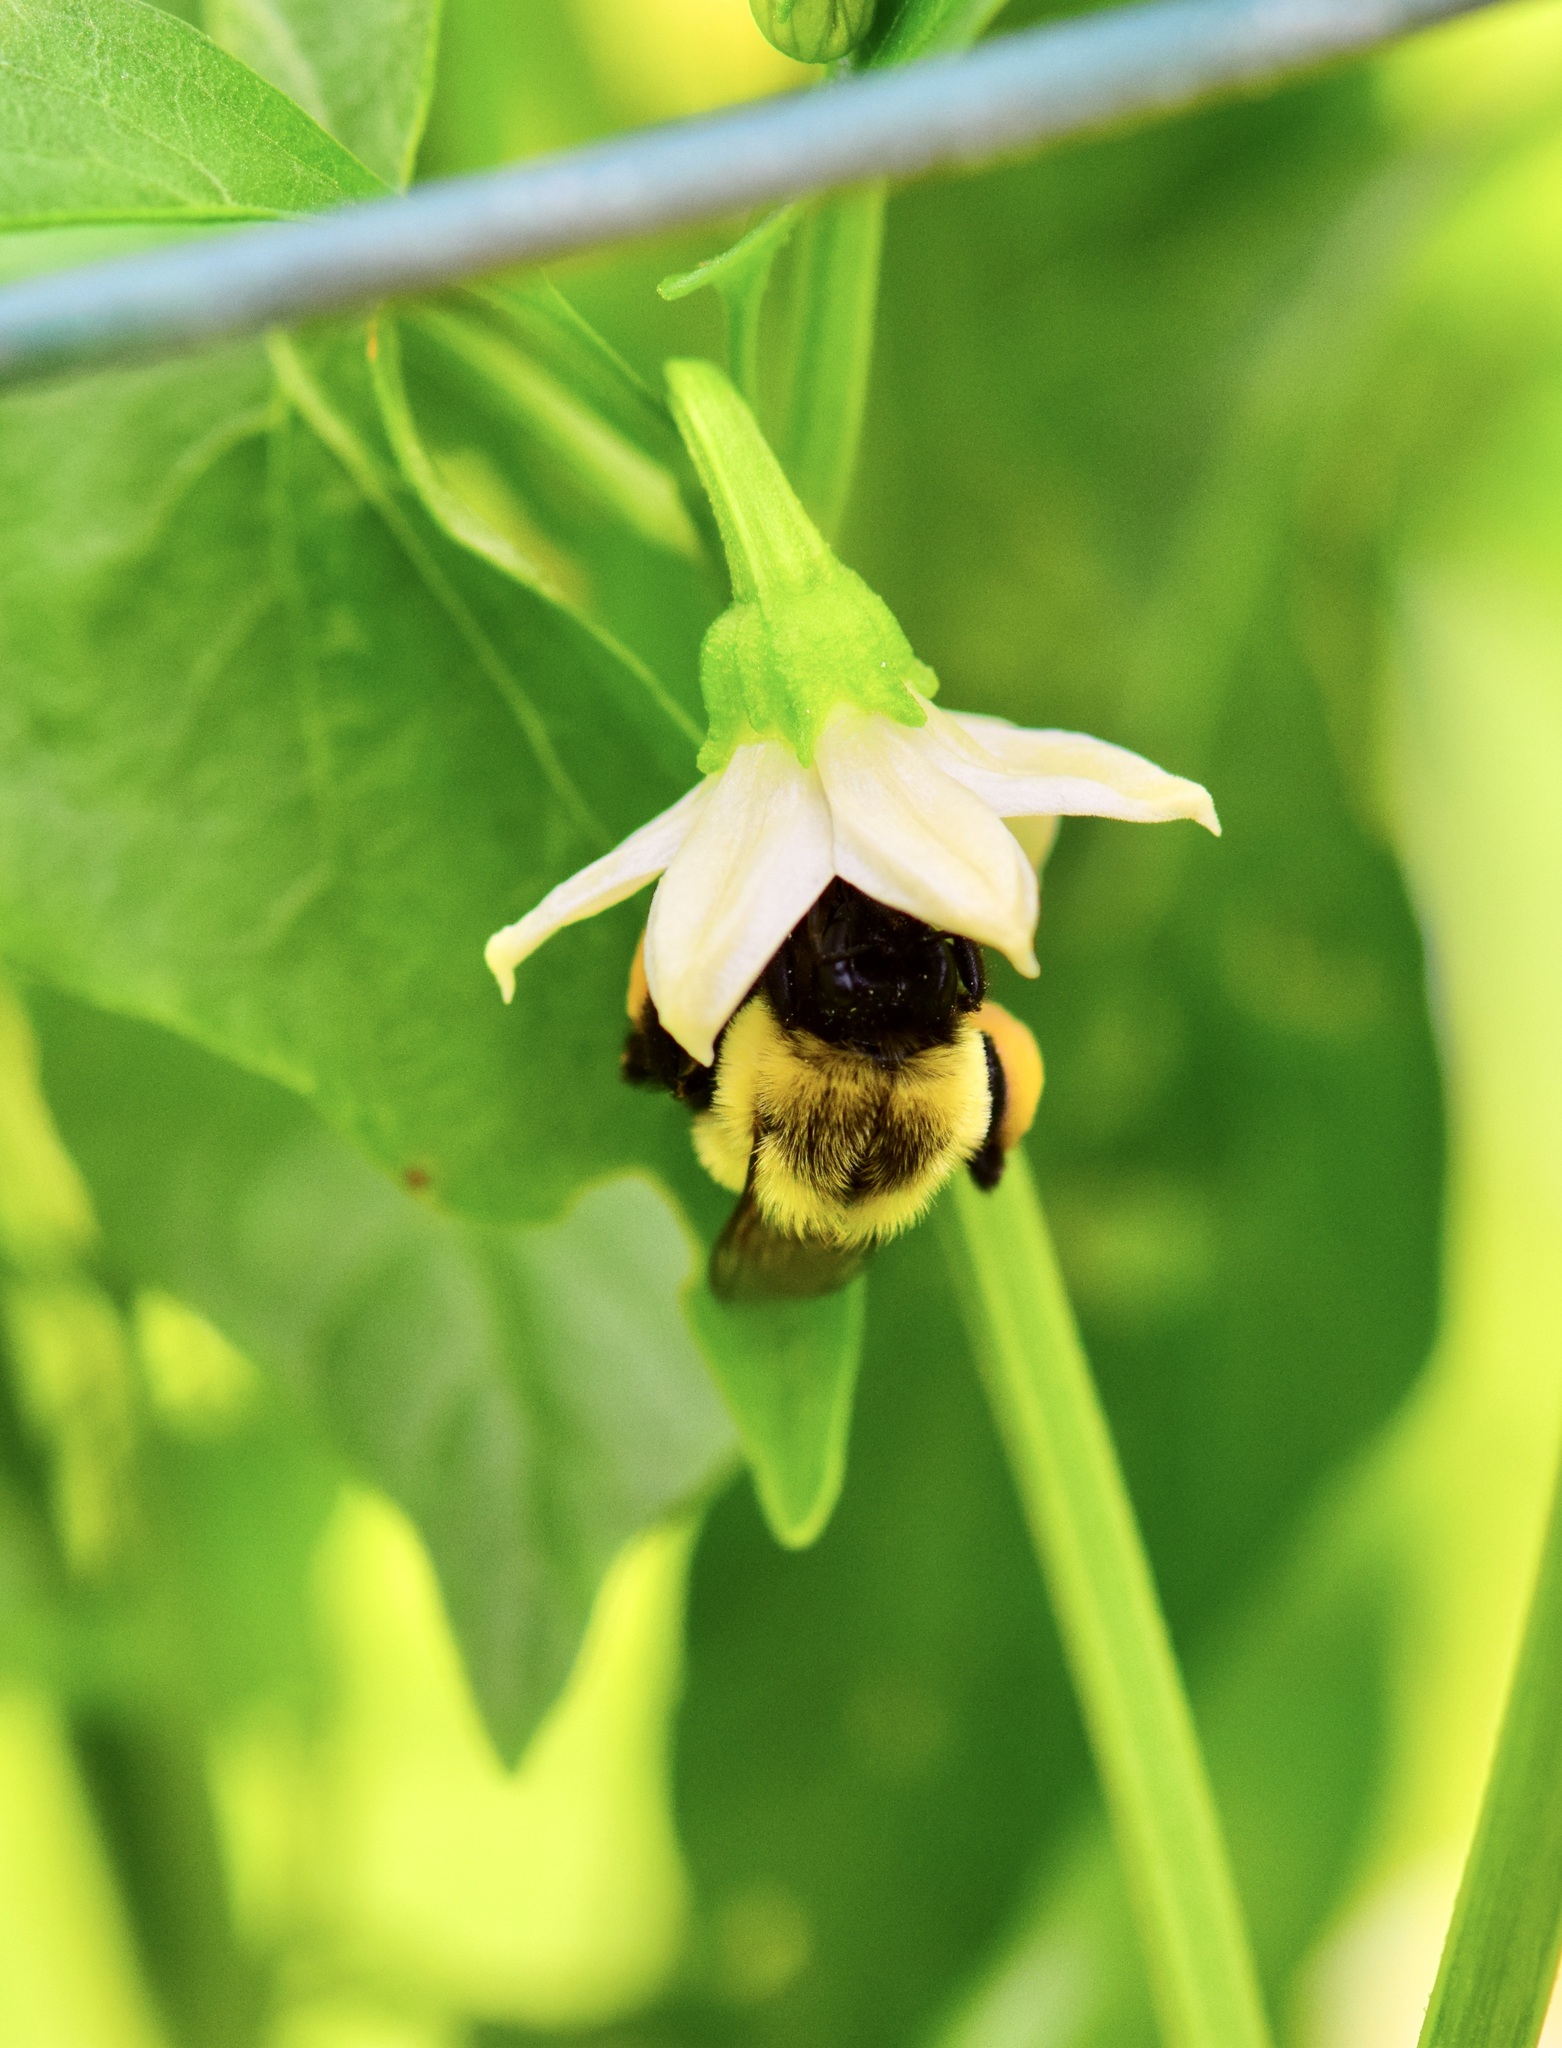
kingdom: Animalia
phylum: Arthropoda
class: Insecta
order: Hymenoptera
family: Apidae
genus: Bombus
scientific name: Bombus impatiens
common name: Common eastern bumble bee
